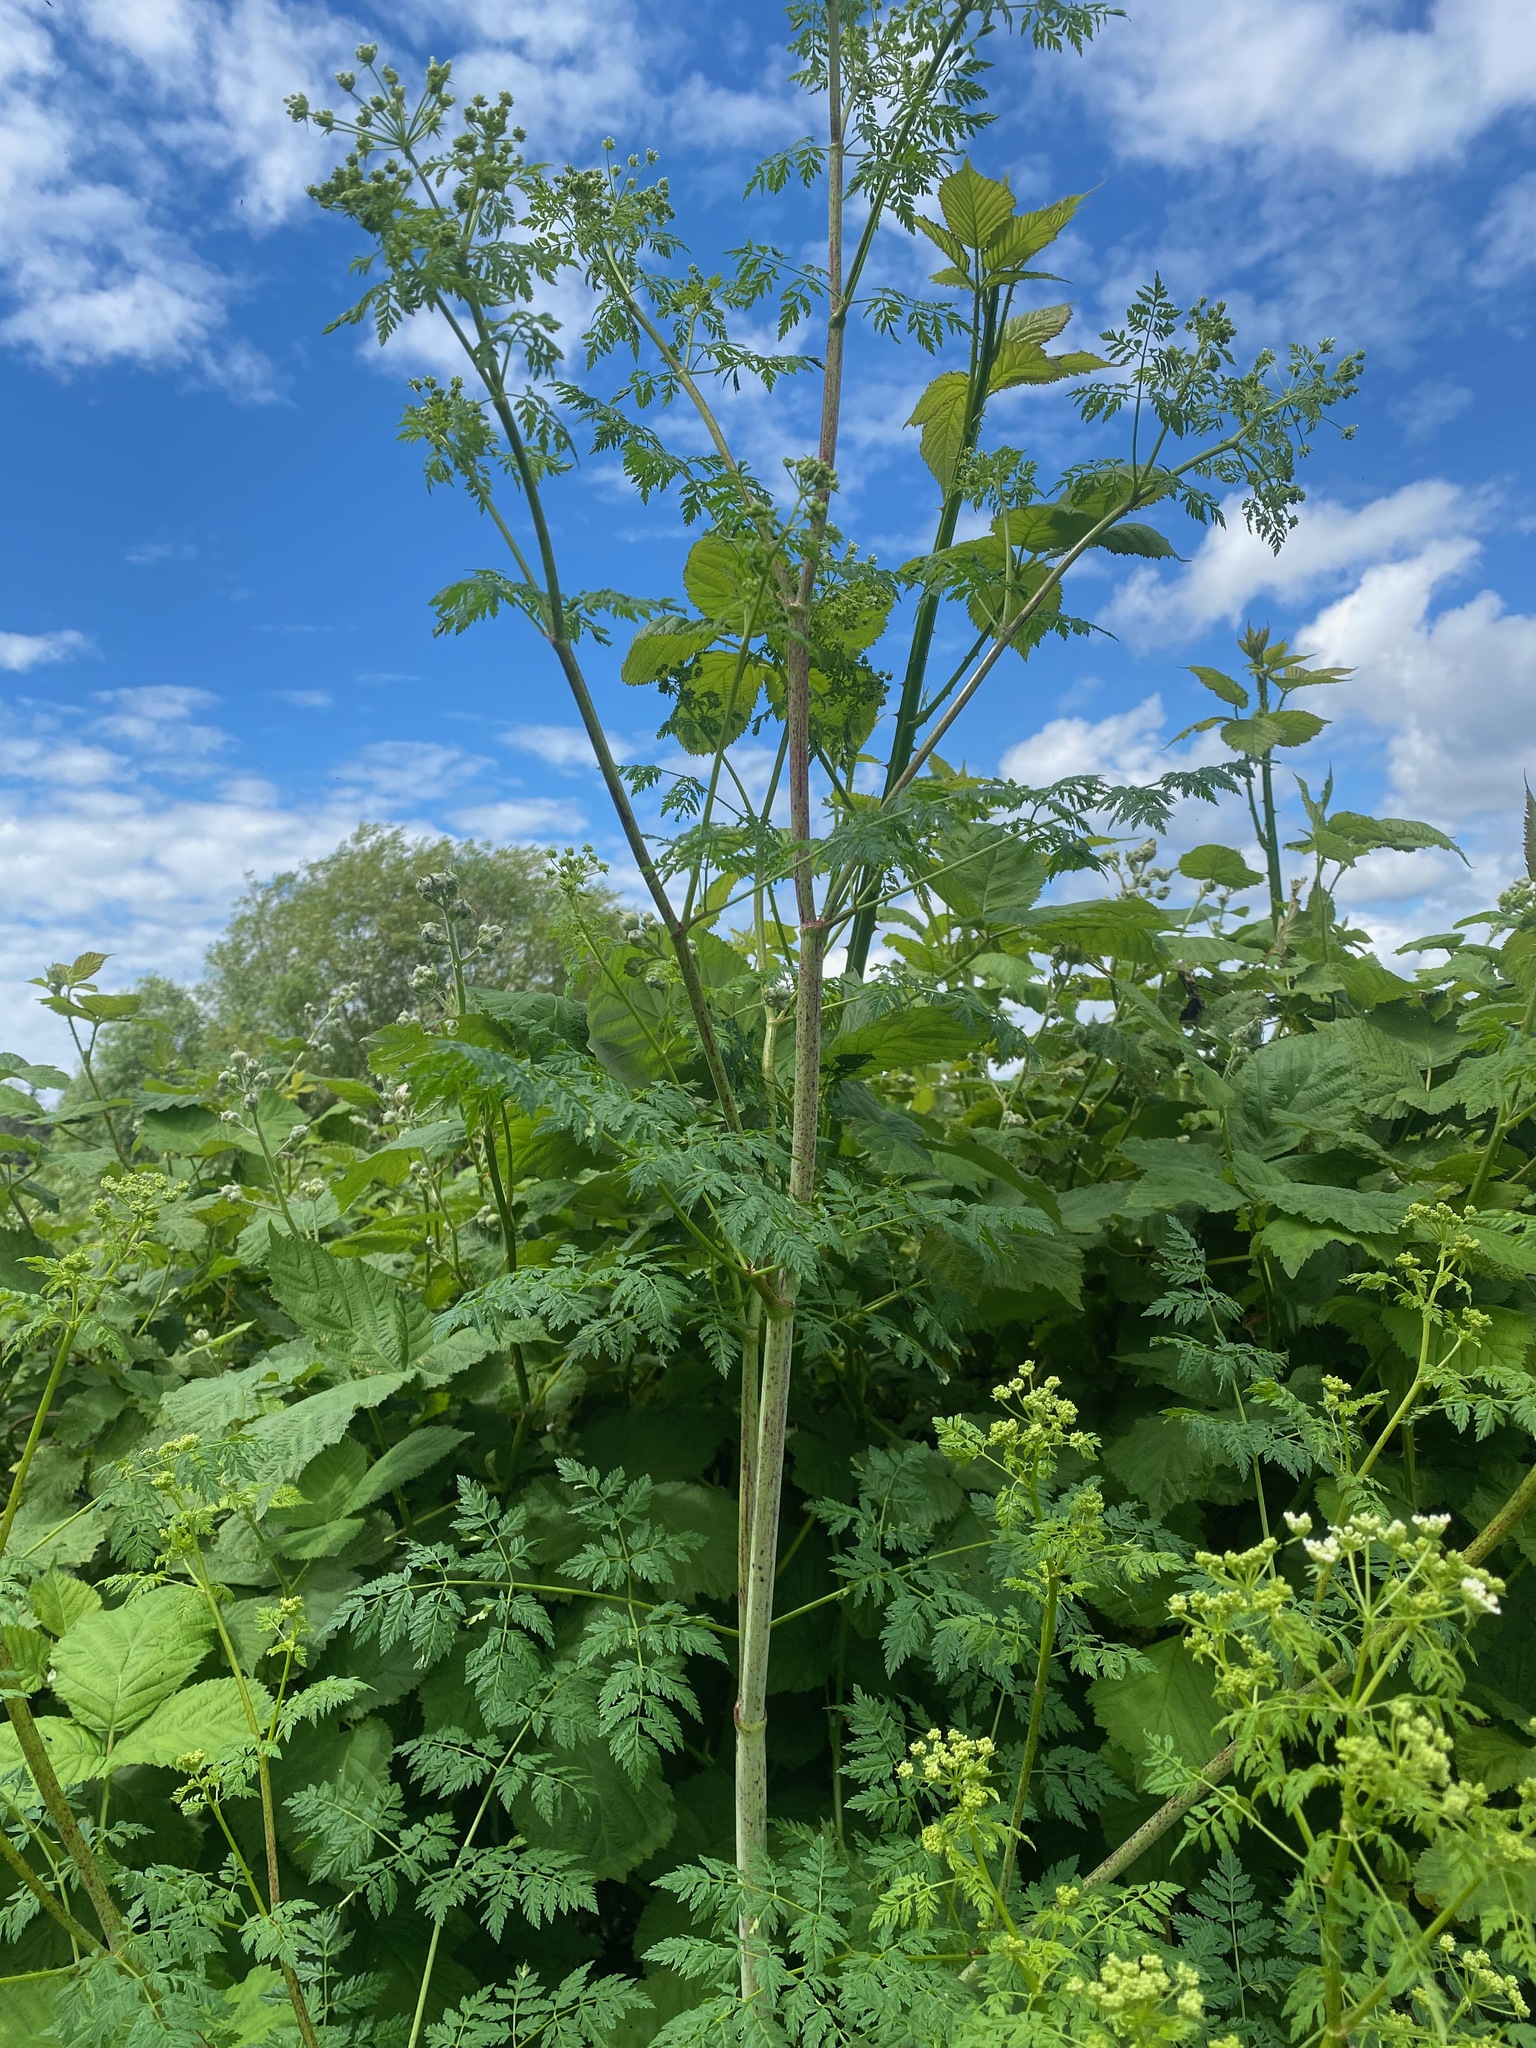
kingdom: Plantae
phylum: Tracheophyta
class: Magnoliopsida
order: Apiales
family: Apiaceae
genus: Conium
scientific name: Conium maculatum
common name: Hemlock
